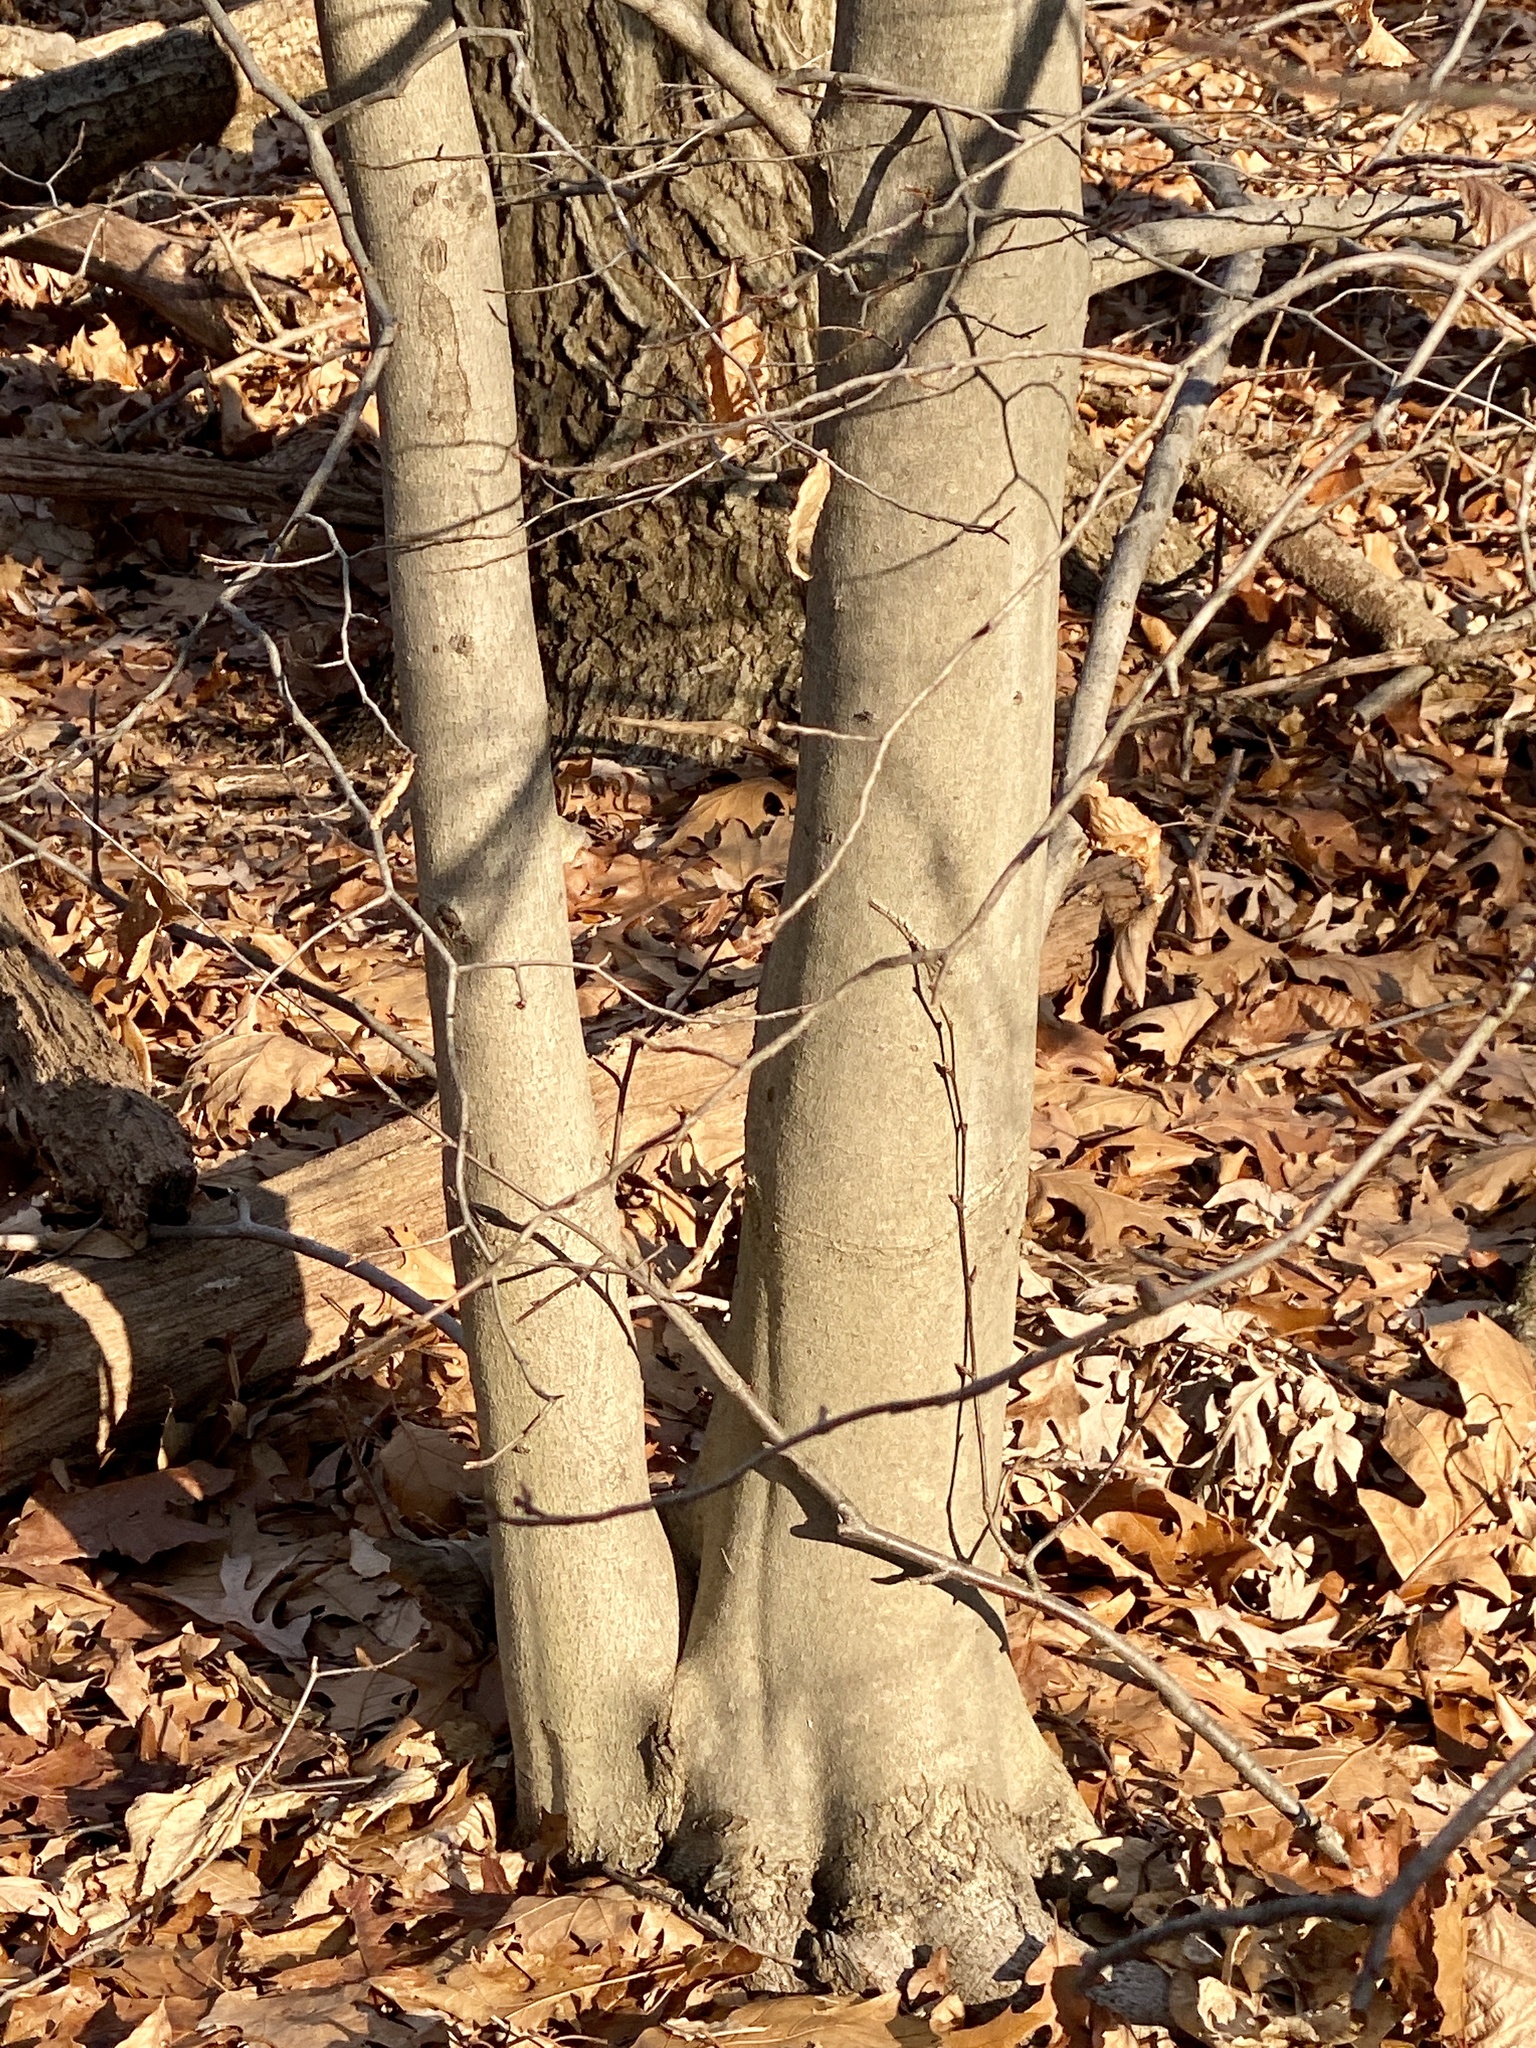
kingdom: Plantae
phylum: Tracheophyta
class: Magnoliopsida
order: Fagales
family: Fagaceae
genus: Fagus
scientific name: Fagus grandifolia
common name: American beech
